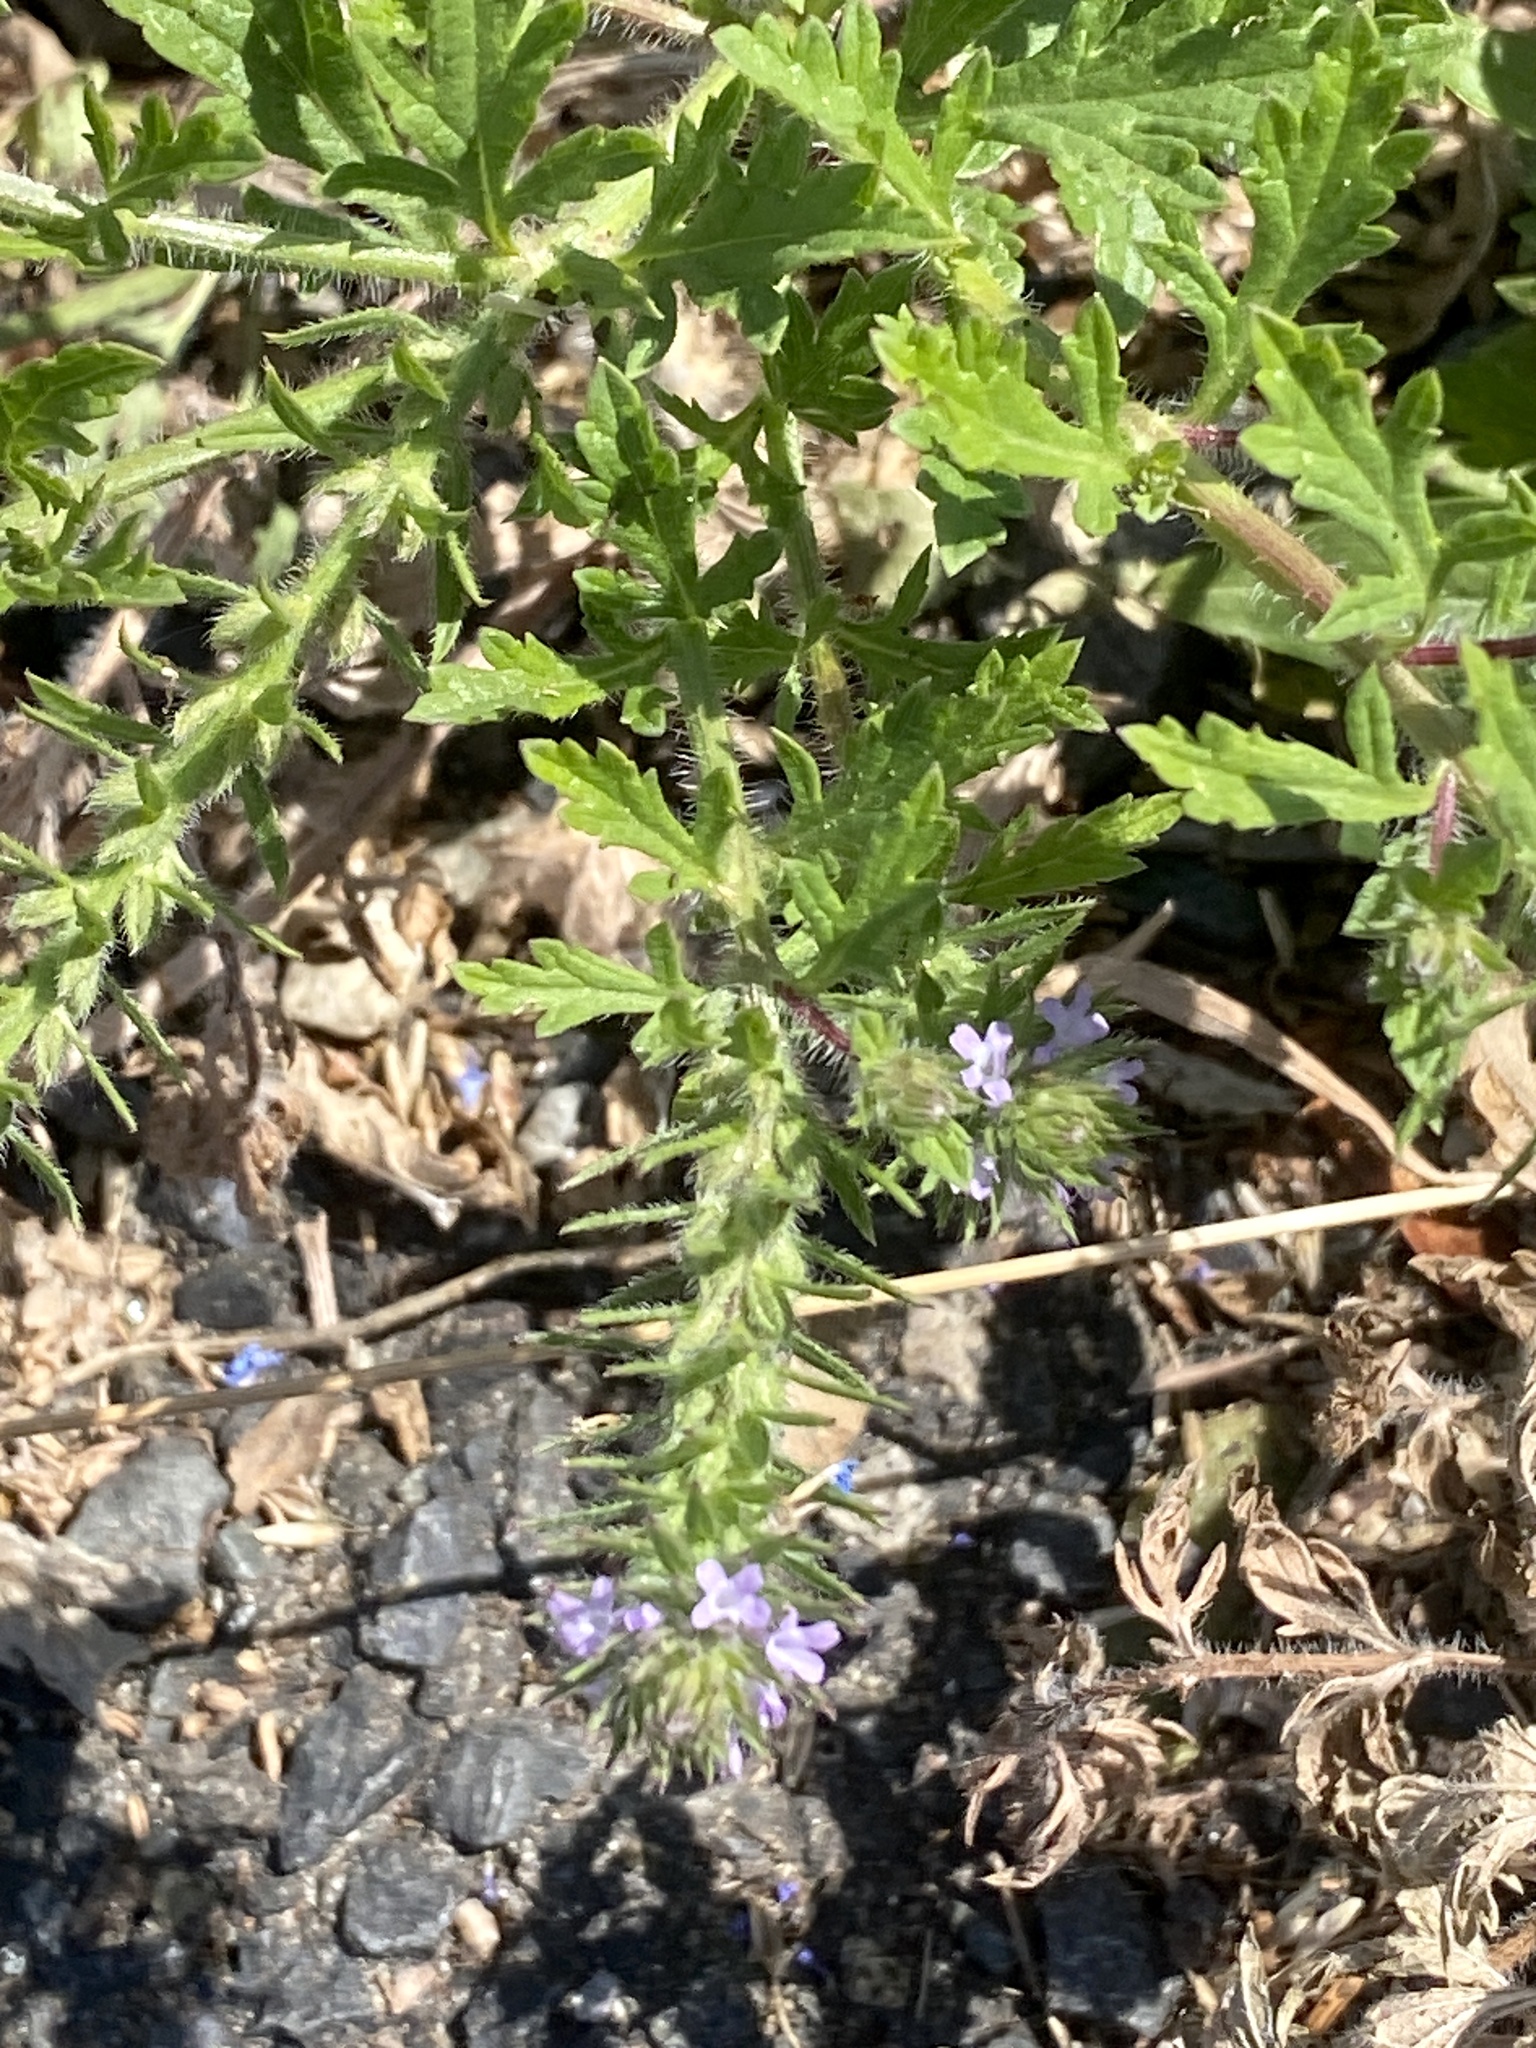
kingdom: Plantae
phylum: Tracheophyta
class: Magnoliopsida
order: Lamiales
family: Verbenaceae
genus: Verbena
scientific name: Verbena bracteata
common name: Bracted vervain
